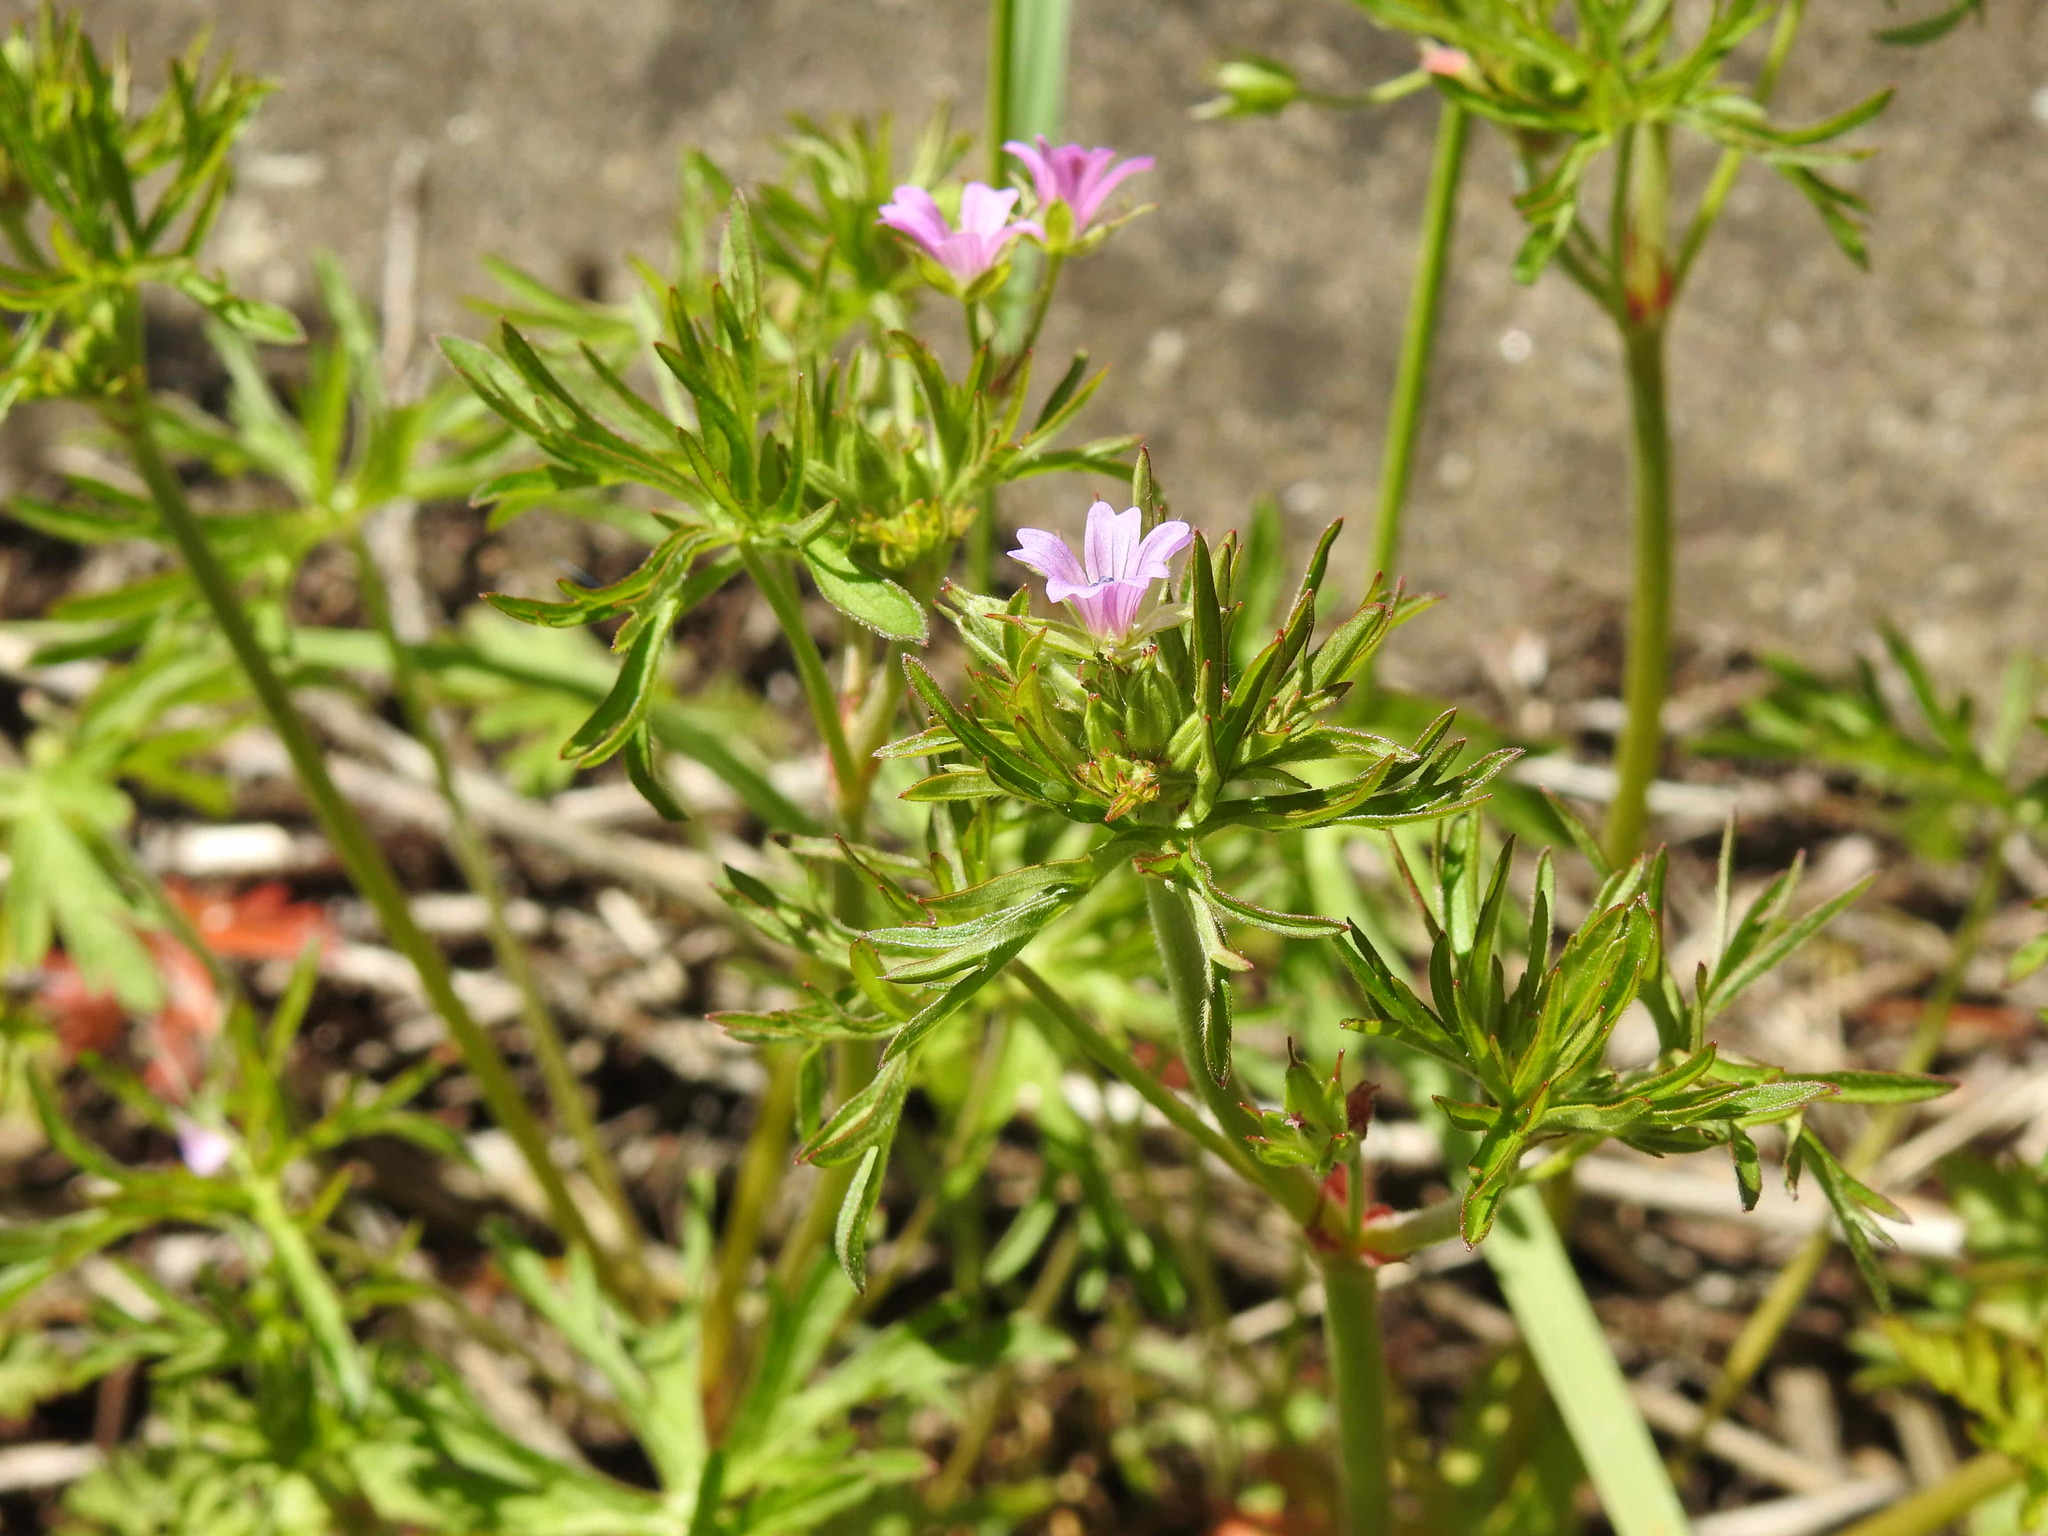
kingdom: Plantae
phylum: Tracheophyta
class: Magnoliopsida
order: Geraniales
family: Geraniaceae
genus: Geranium
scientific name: Geranium dissectum
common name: Cut-leaved crane's-bill
